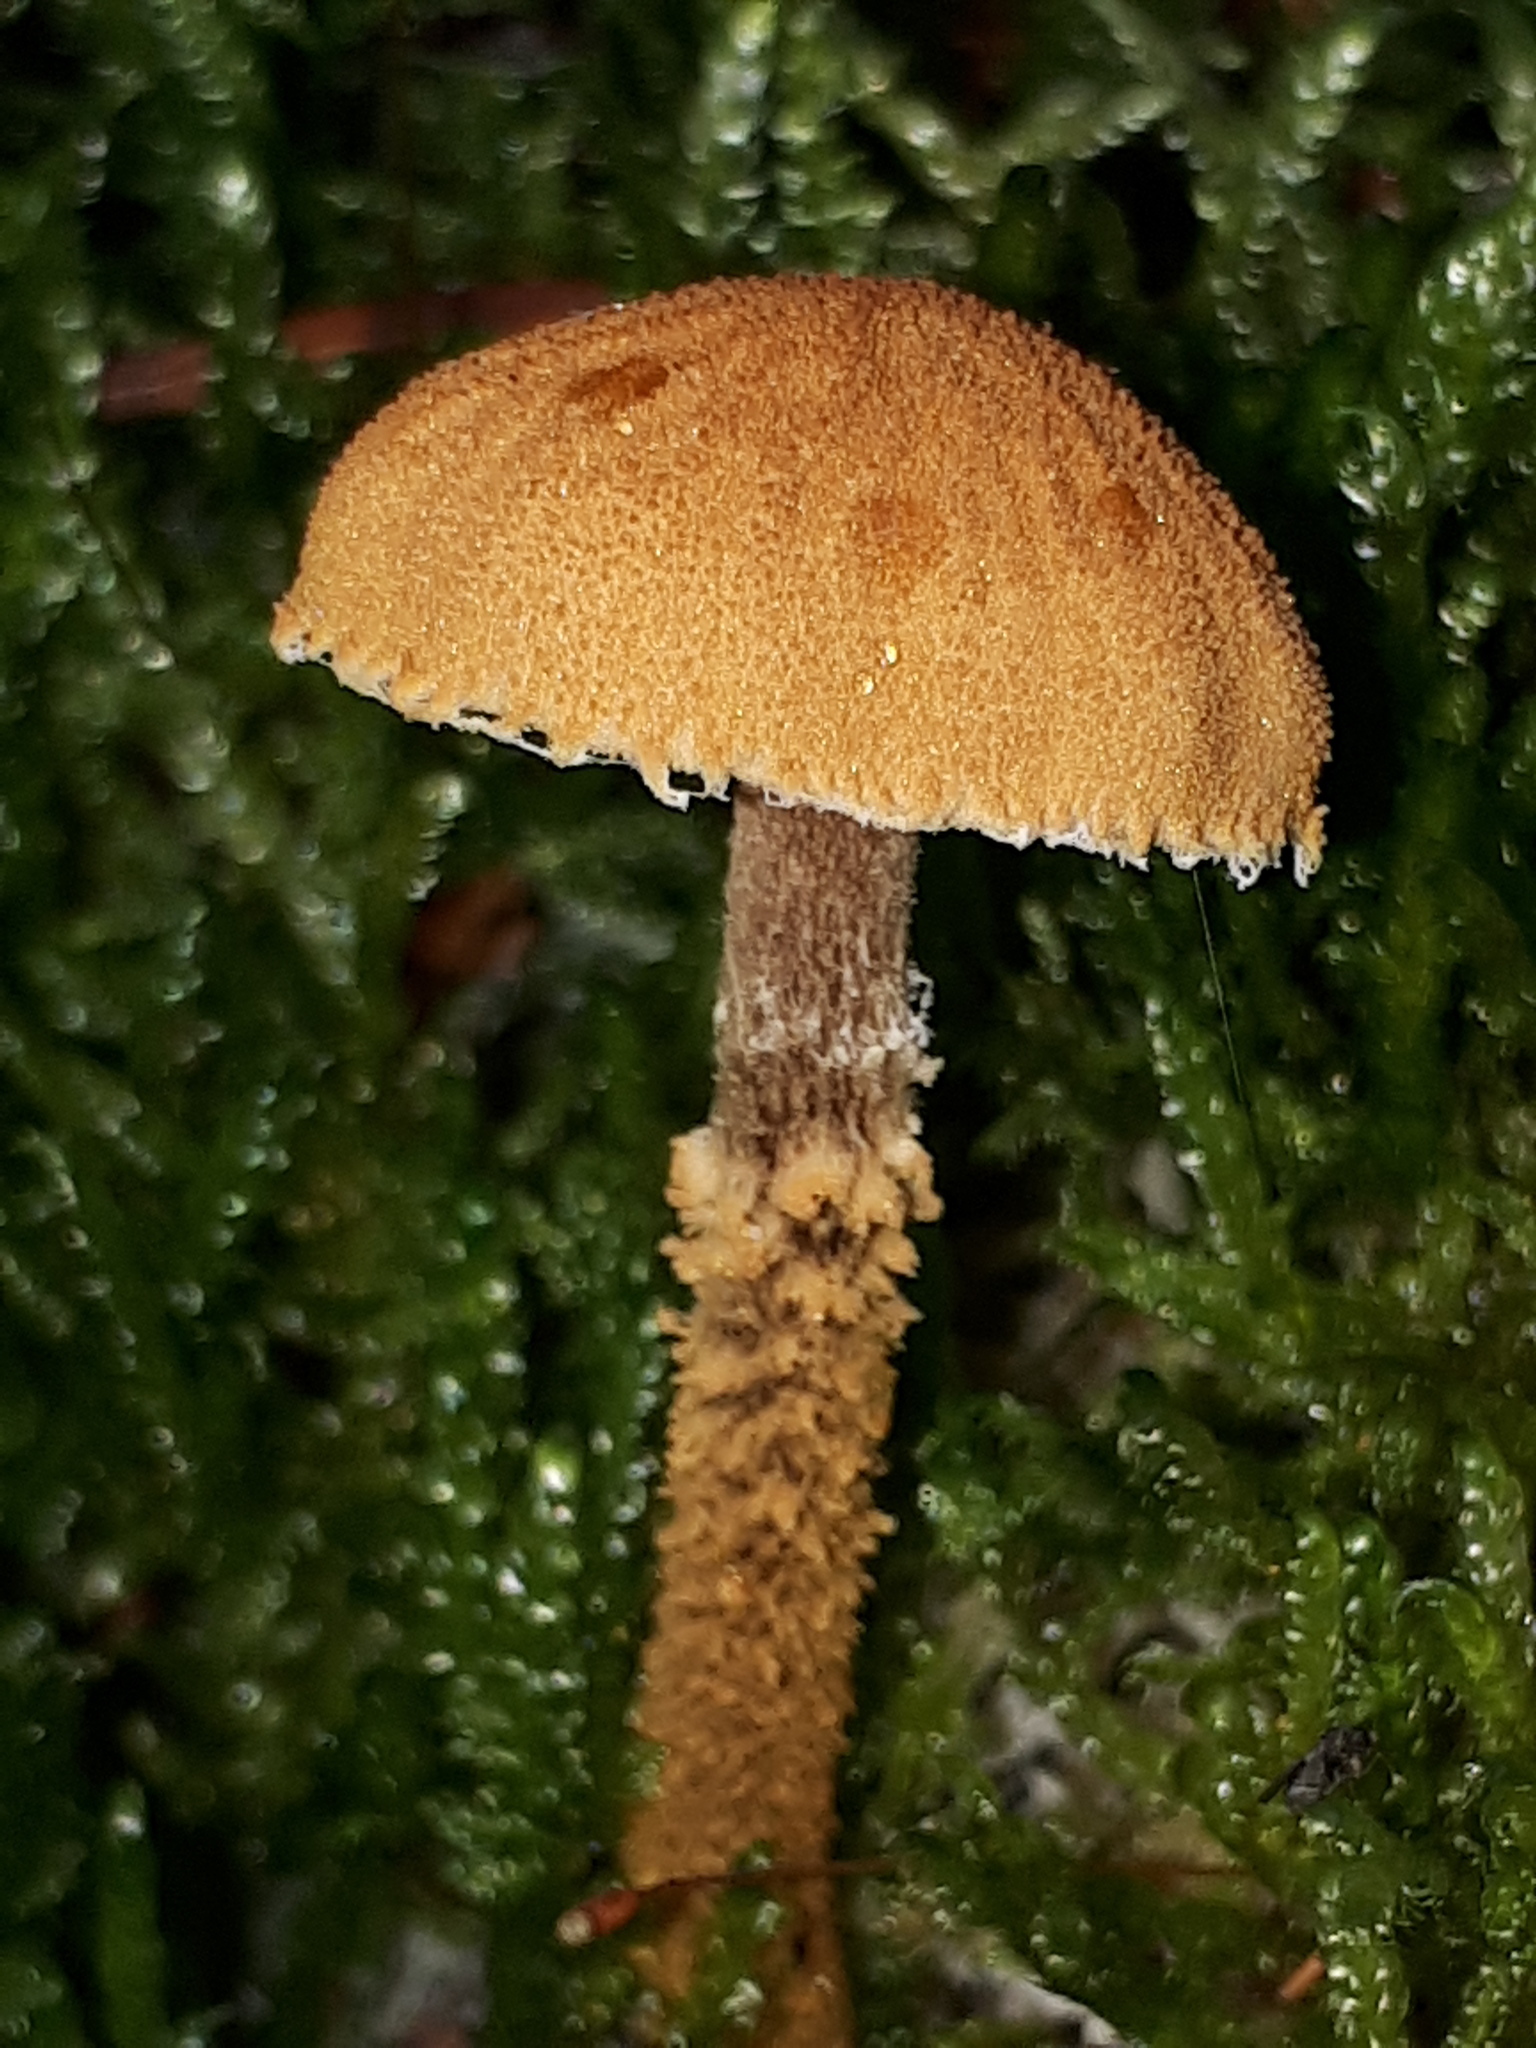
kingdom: Fungi
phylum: Basidiomycota
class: Agaricomycetes
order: Agaricales
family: Tricholomataceae
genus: Cystoderma
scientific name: Cystoderma amianthinum
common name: Earthy powdercap
